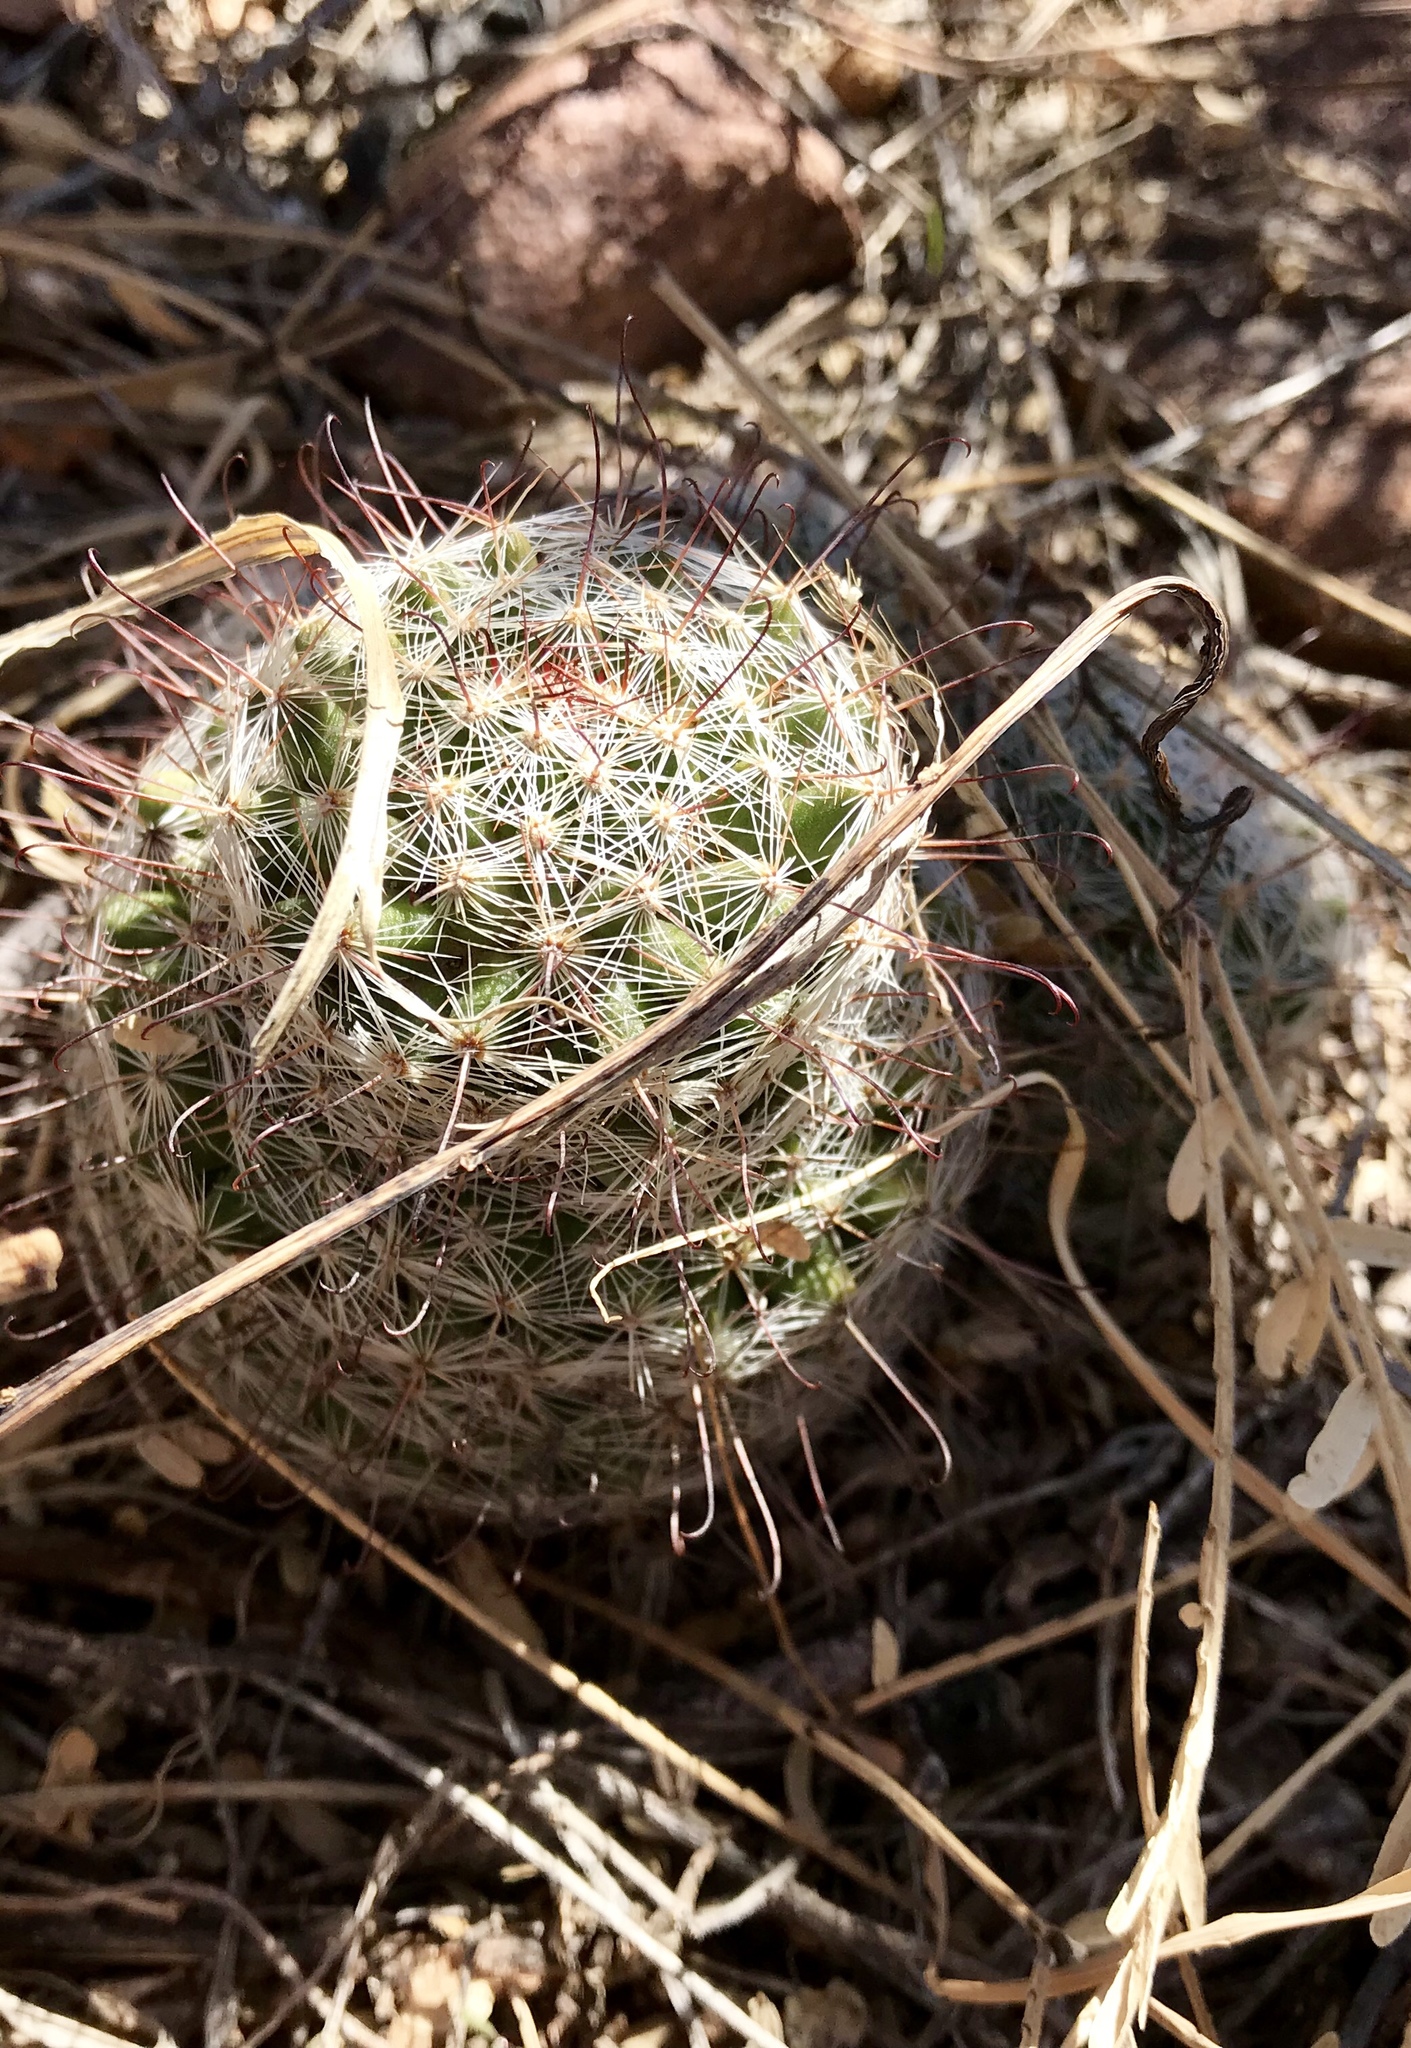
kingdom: Plantae
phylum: Tracheophyta
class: Magnoliopsida
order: Caryophyllales
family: Cactaceae
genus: Cochemiea
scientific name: Cochemiea grahamii
